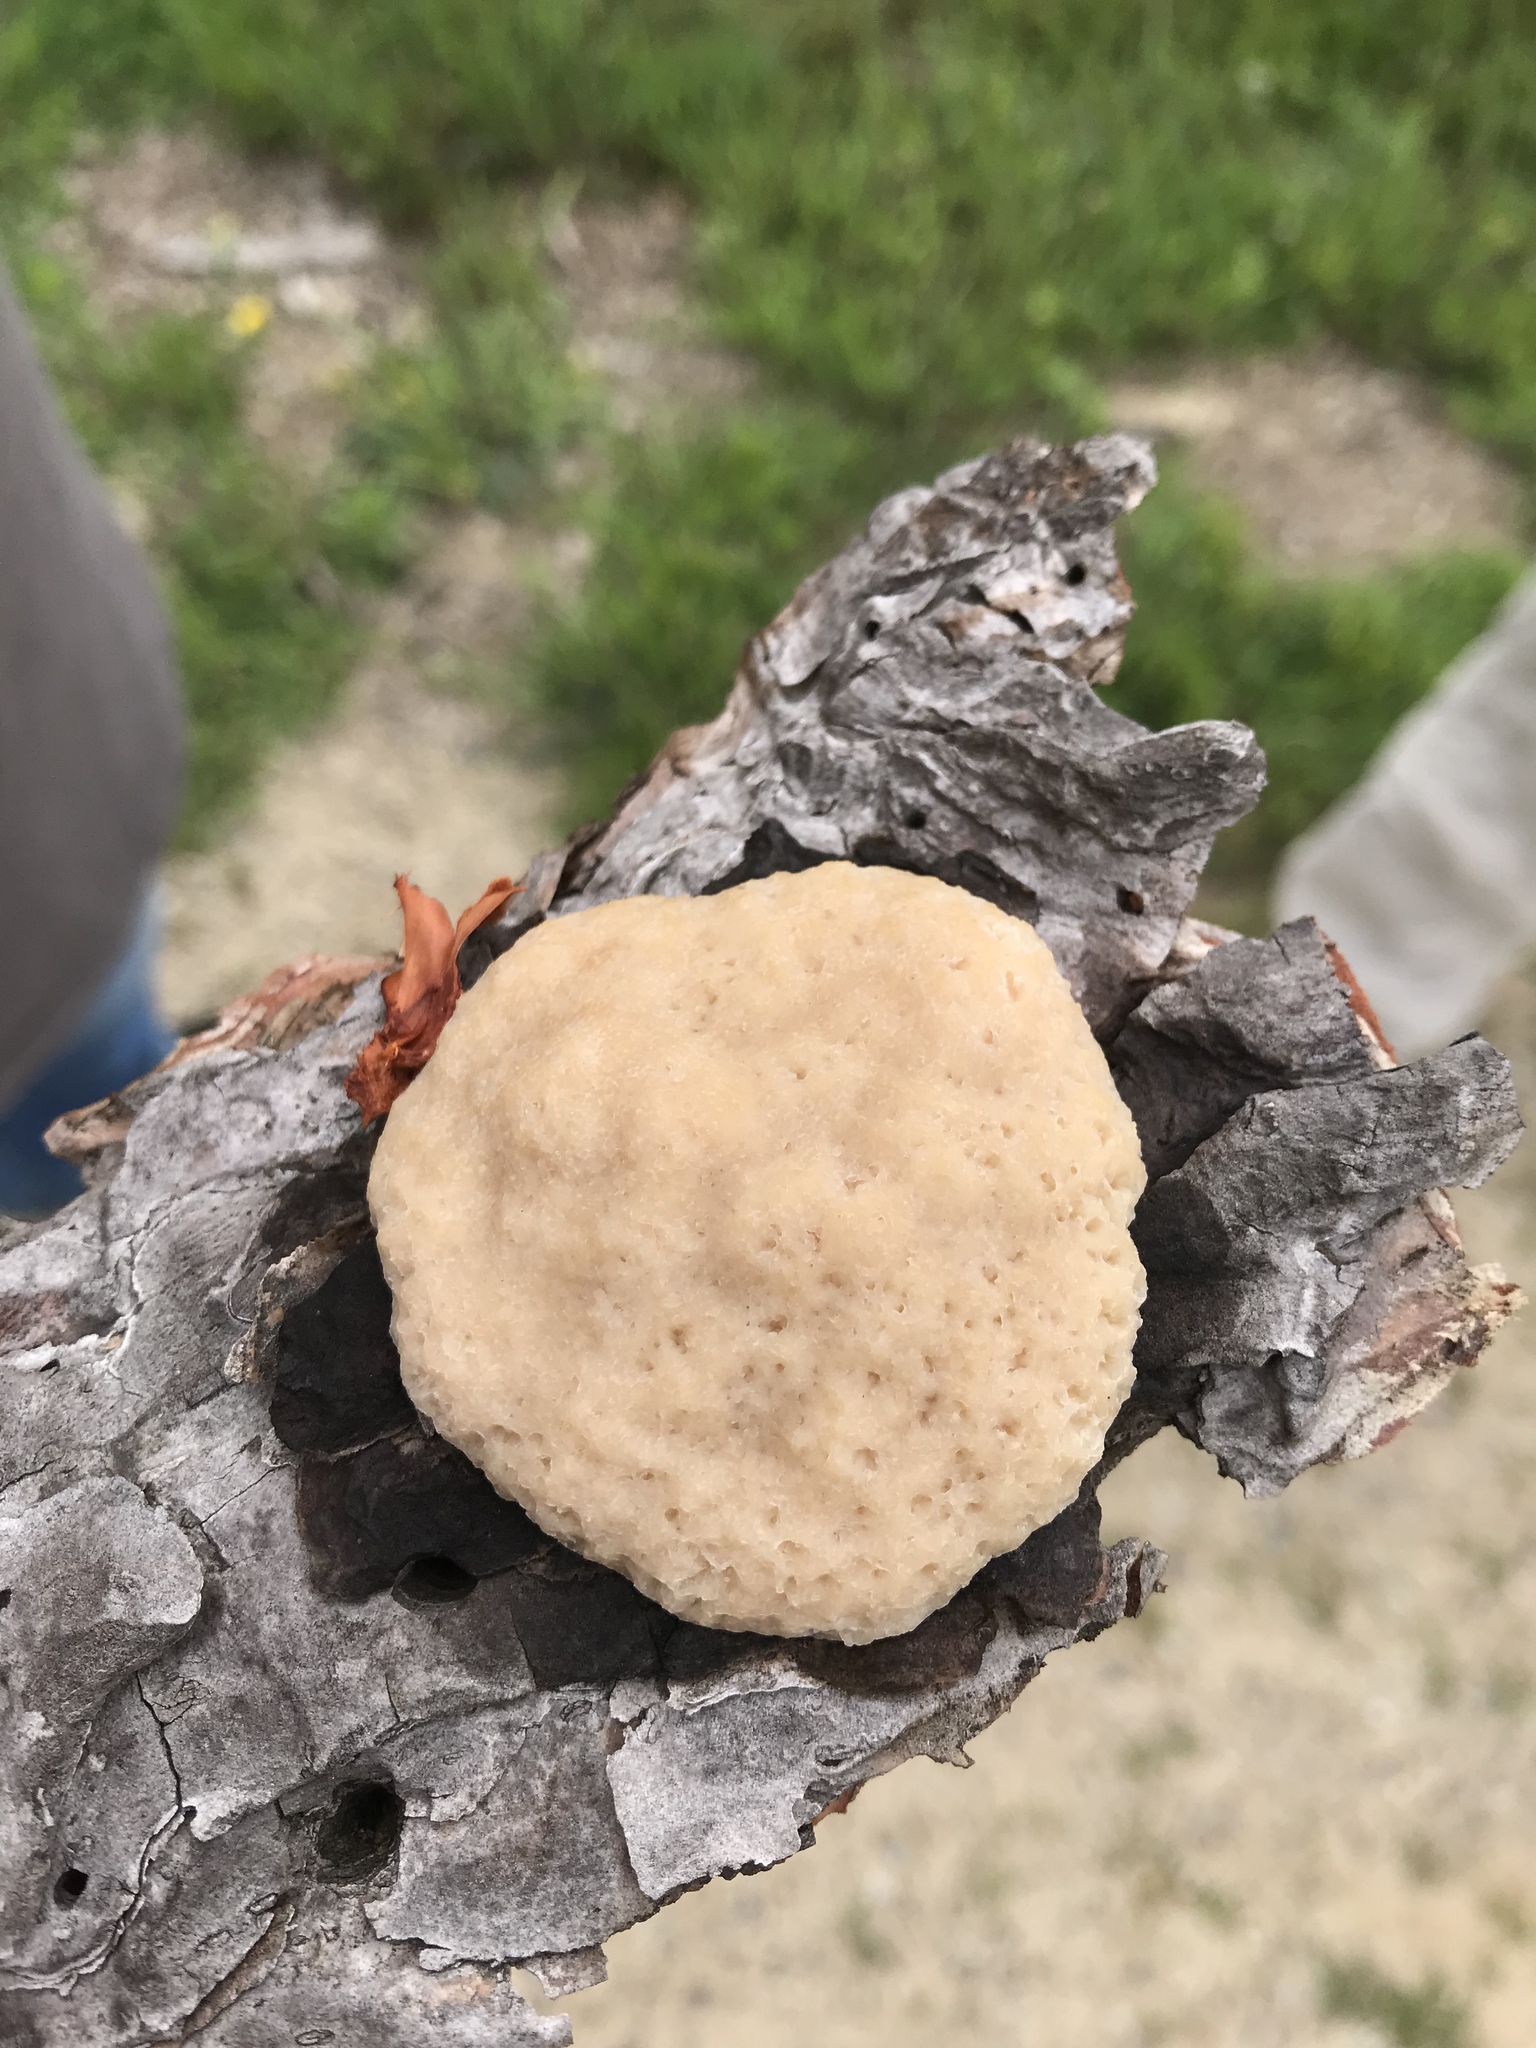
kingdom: Protozoa
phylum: Mycetozoa
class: Myxomycetes
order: Physarales
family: Physaraceae
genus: Fuligo
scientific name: Fuligo septica
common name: Dog vomit slime mold
